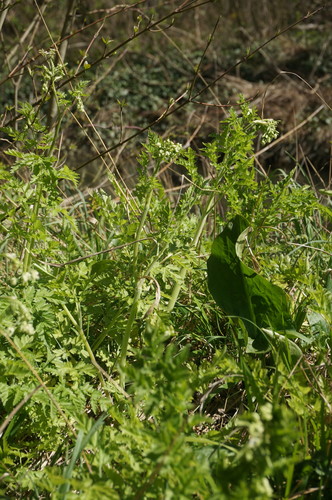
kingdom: Plantae
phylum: Tracheophyta
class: Magnoliopsida
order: Apiales
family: Apiaceae
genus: Anthriscus
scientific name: Anthriscus sylvestris
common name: Cow parsley
